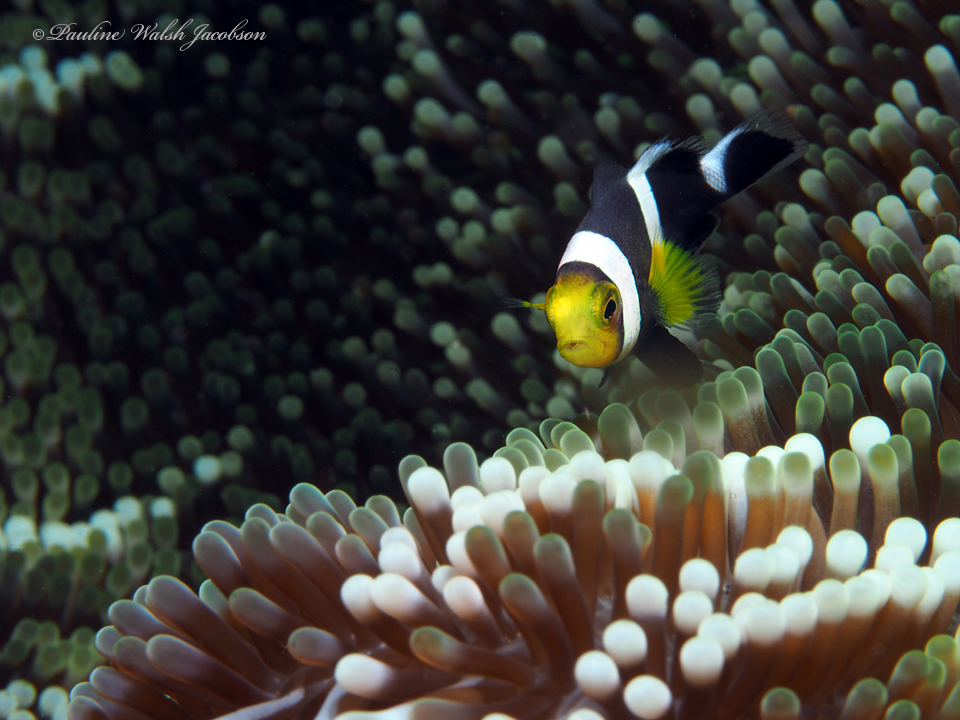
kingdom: Animalia
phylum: Chordata
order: Perciformes
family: Pomacentridae
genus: Amphiprion
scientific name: Amphiprion polymnus
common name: Saddleback anemonefish
